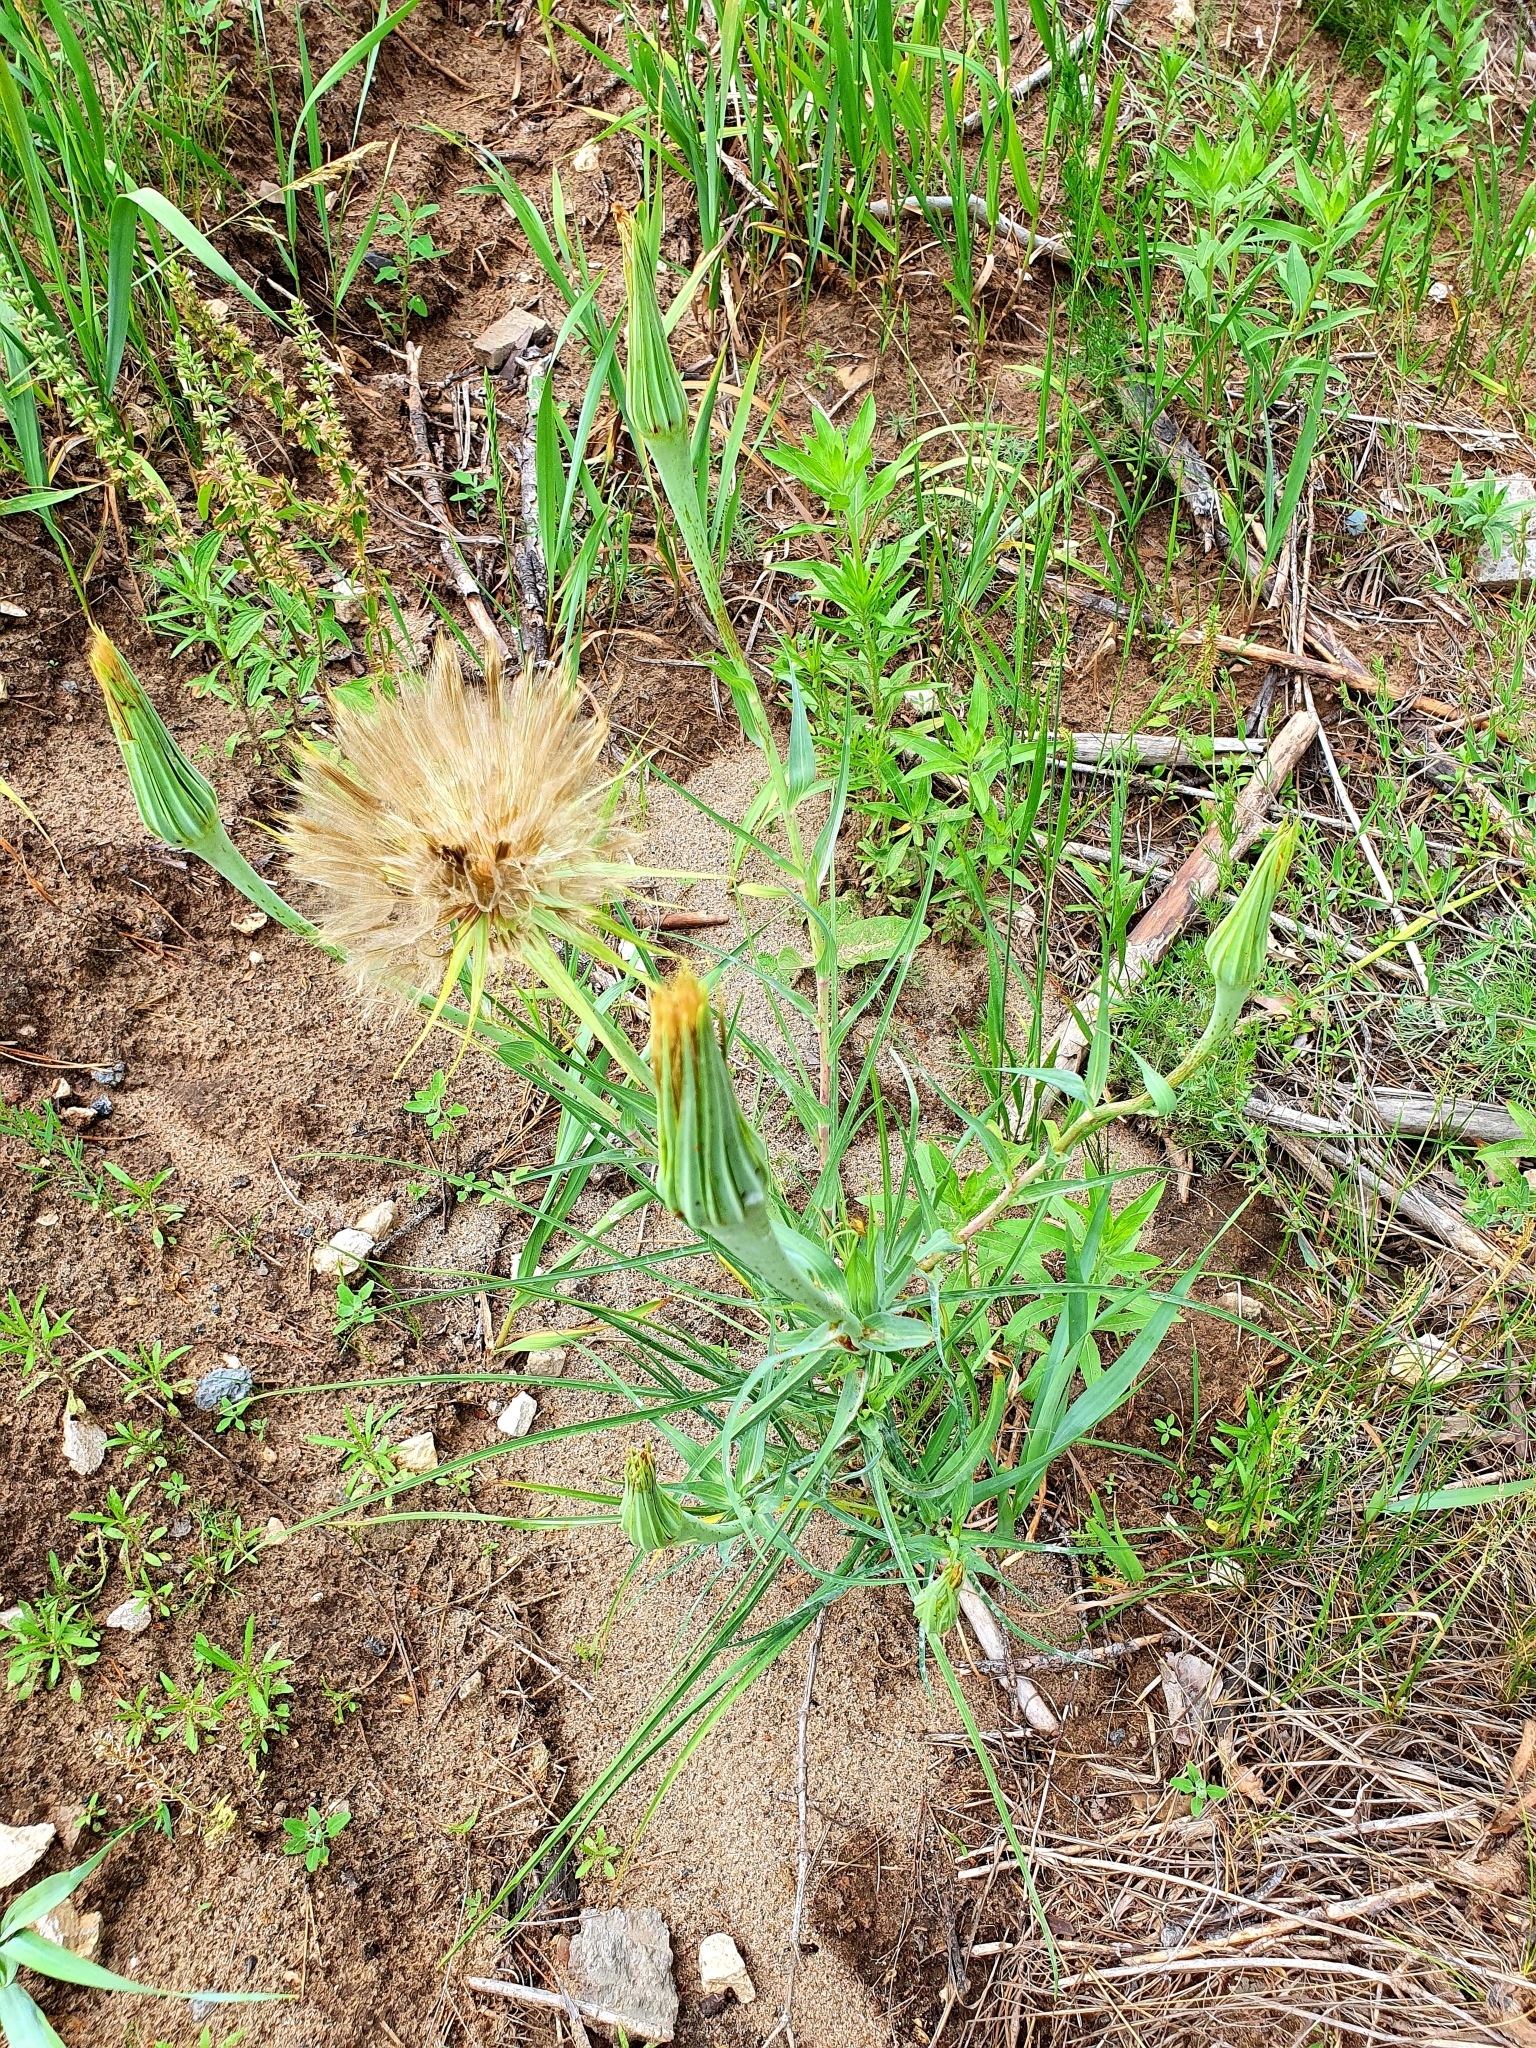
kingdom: Plantae
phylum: Tracheophyta
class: Magnoliopsida
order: Asterales
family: Asteraceae
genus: Tragopogon
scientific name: Tragopogon dubius
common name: Yellow salsify
